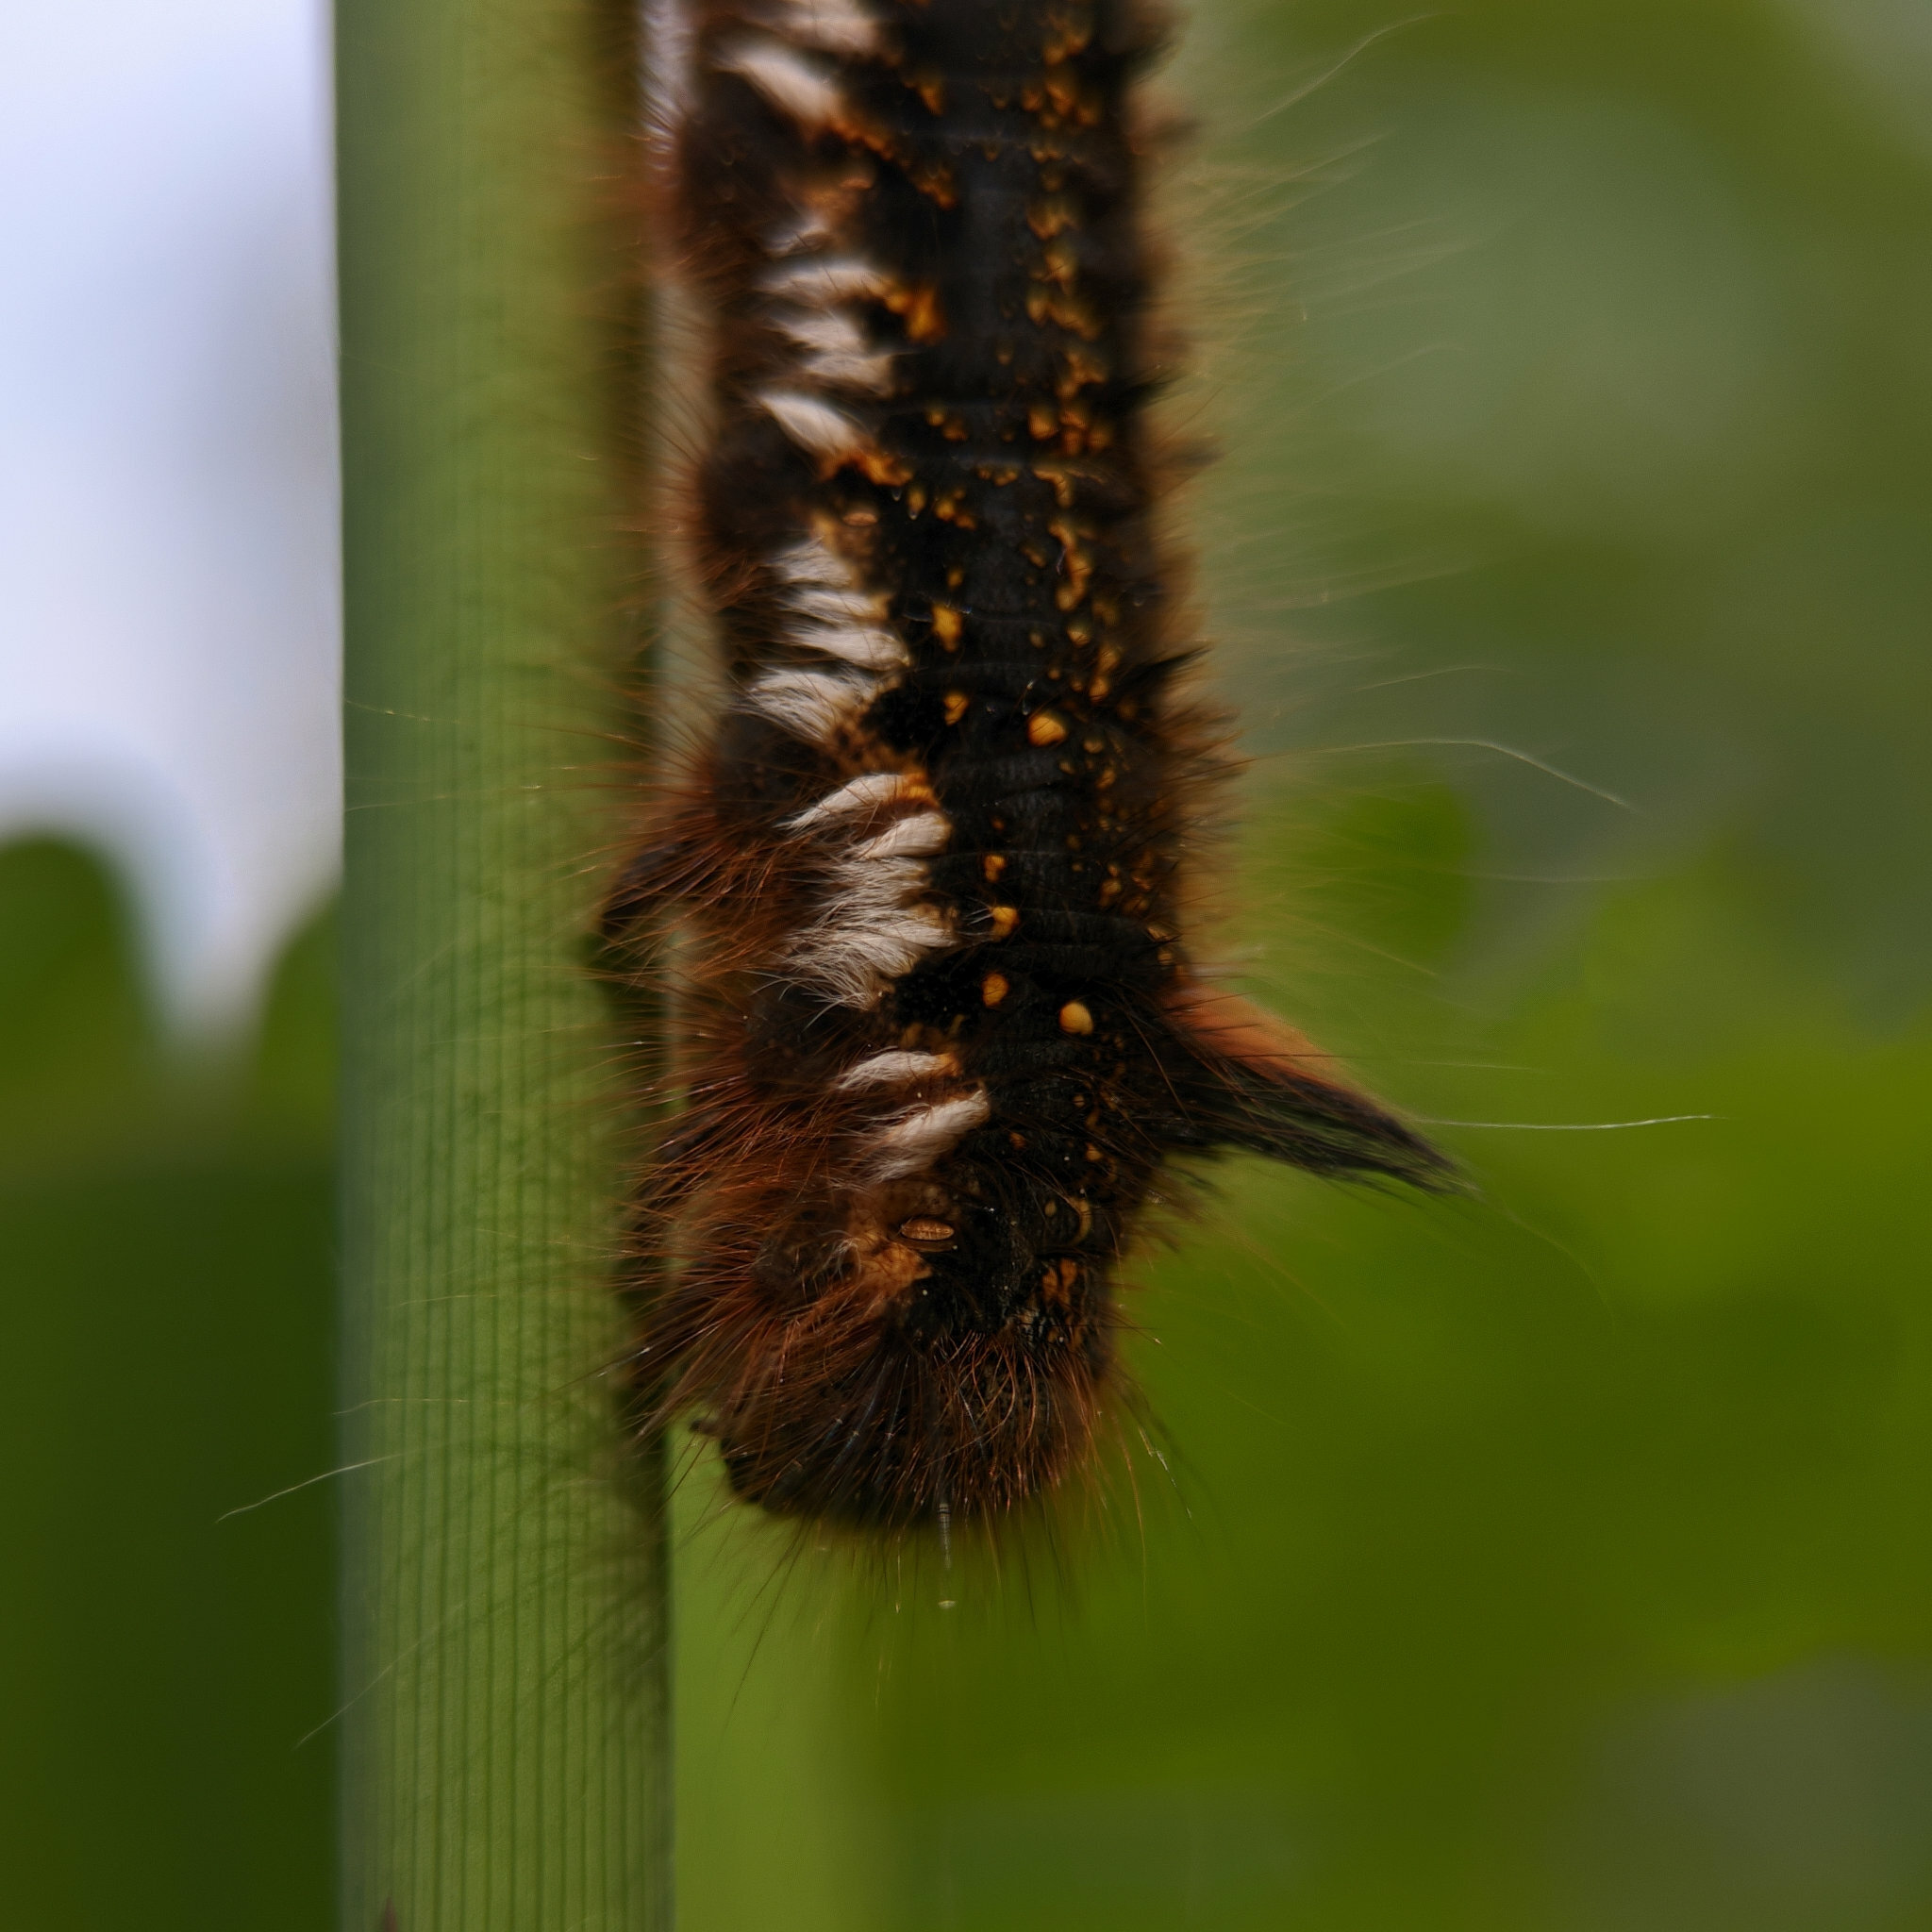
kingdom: Animalia
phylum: Arthropoda
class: Insecta
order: Lepidoptera
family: Lasiocampidae
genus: Euthrix
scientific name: Euthrix potatoria
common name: Drinker
